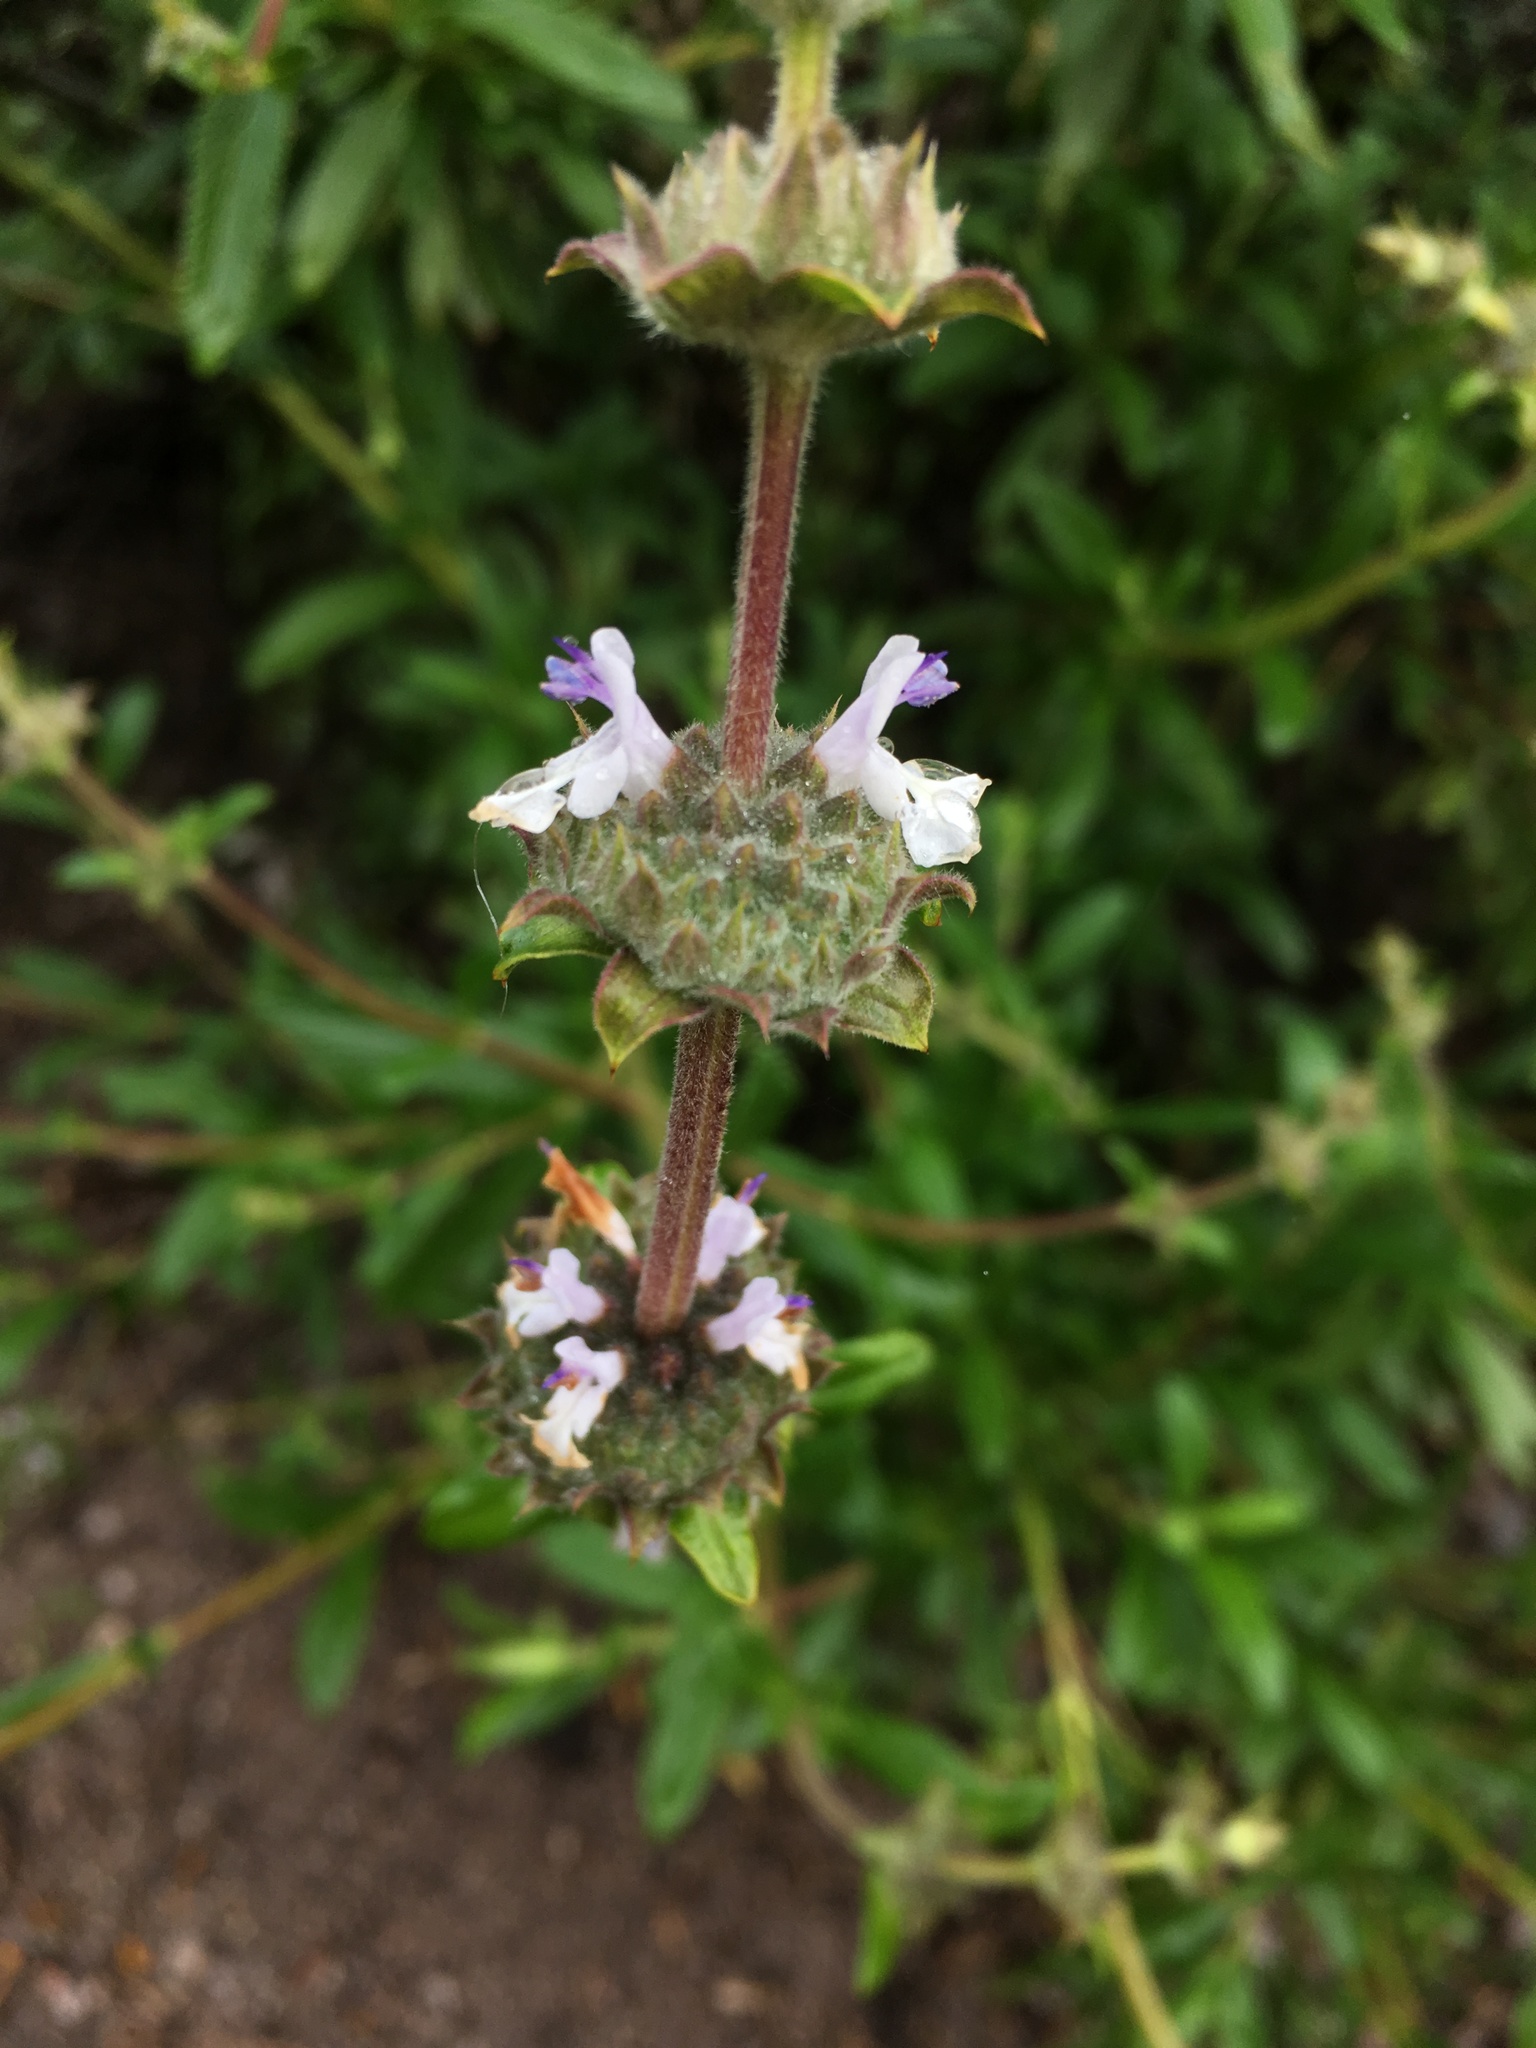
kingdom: Plantae
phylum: Tracheophyta
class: Magnoliopsida
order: Lamiales
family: Lamiaceae
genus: Salvia
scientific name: Salvia mellifera
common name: Black sage
